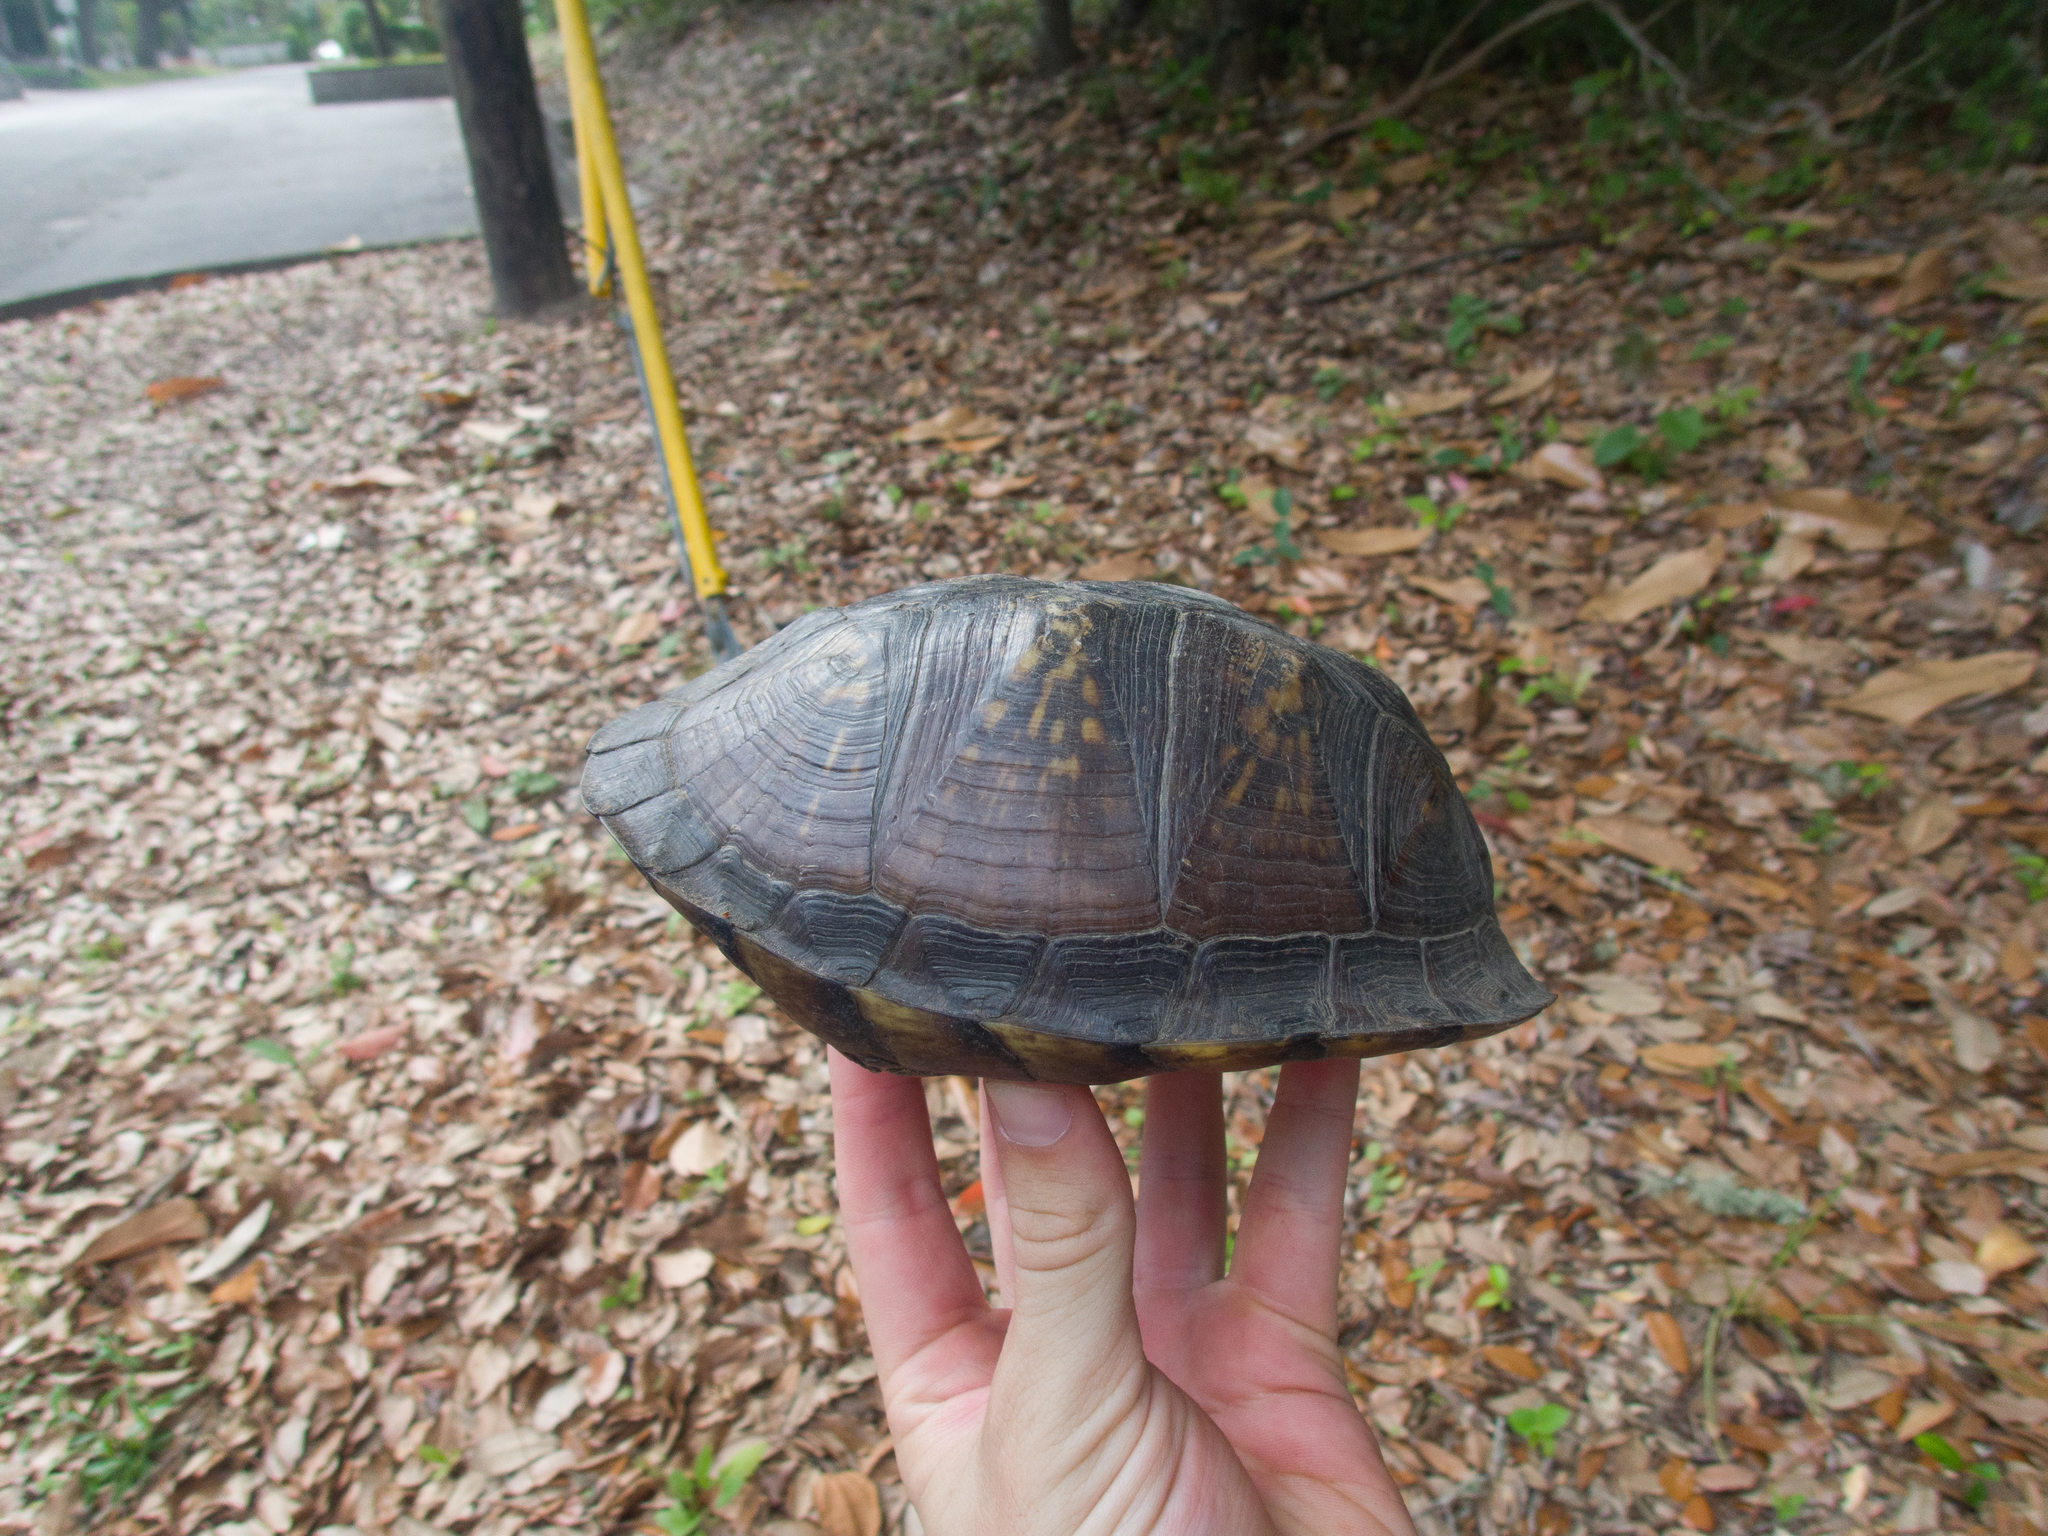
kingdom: Animalia
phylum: Chordata
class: Testudines
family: Emydidae
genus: Terrapene
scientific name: Terrapene carolina
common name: Common box turtle
